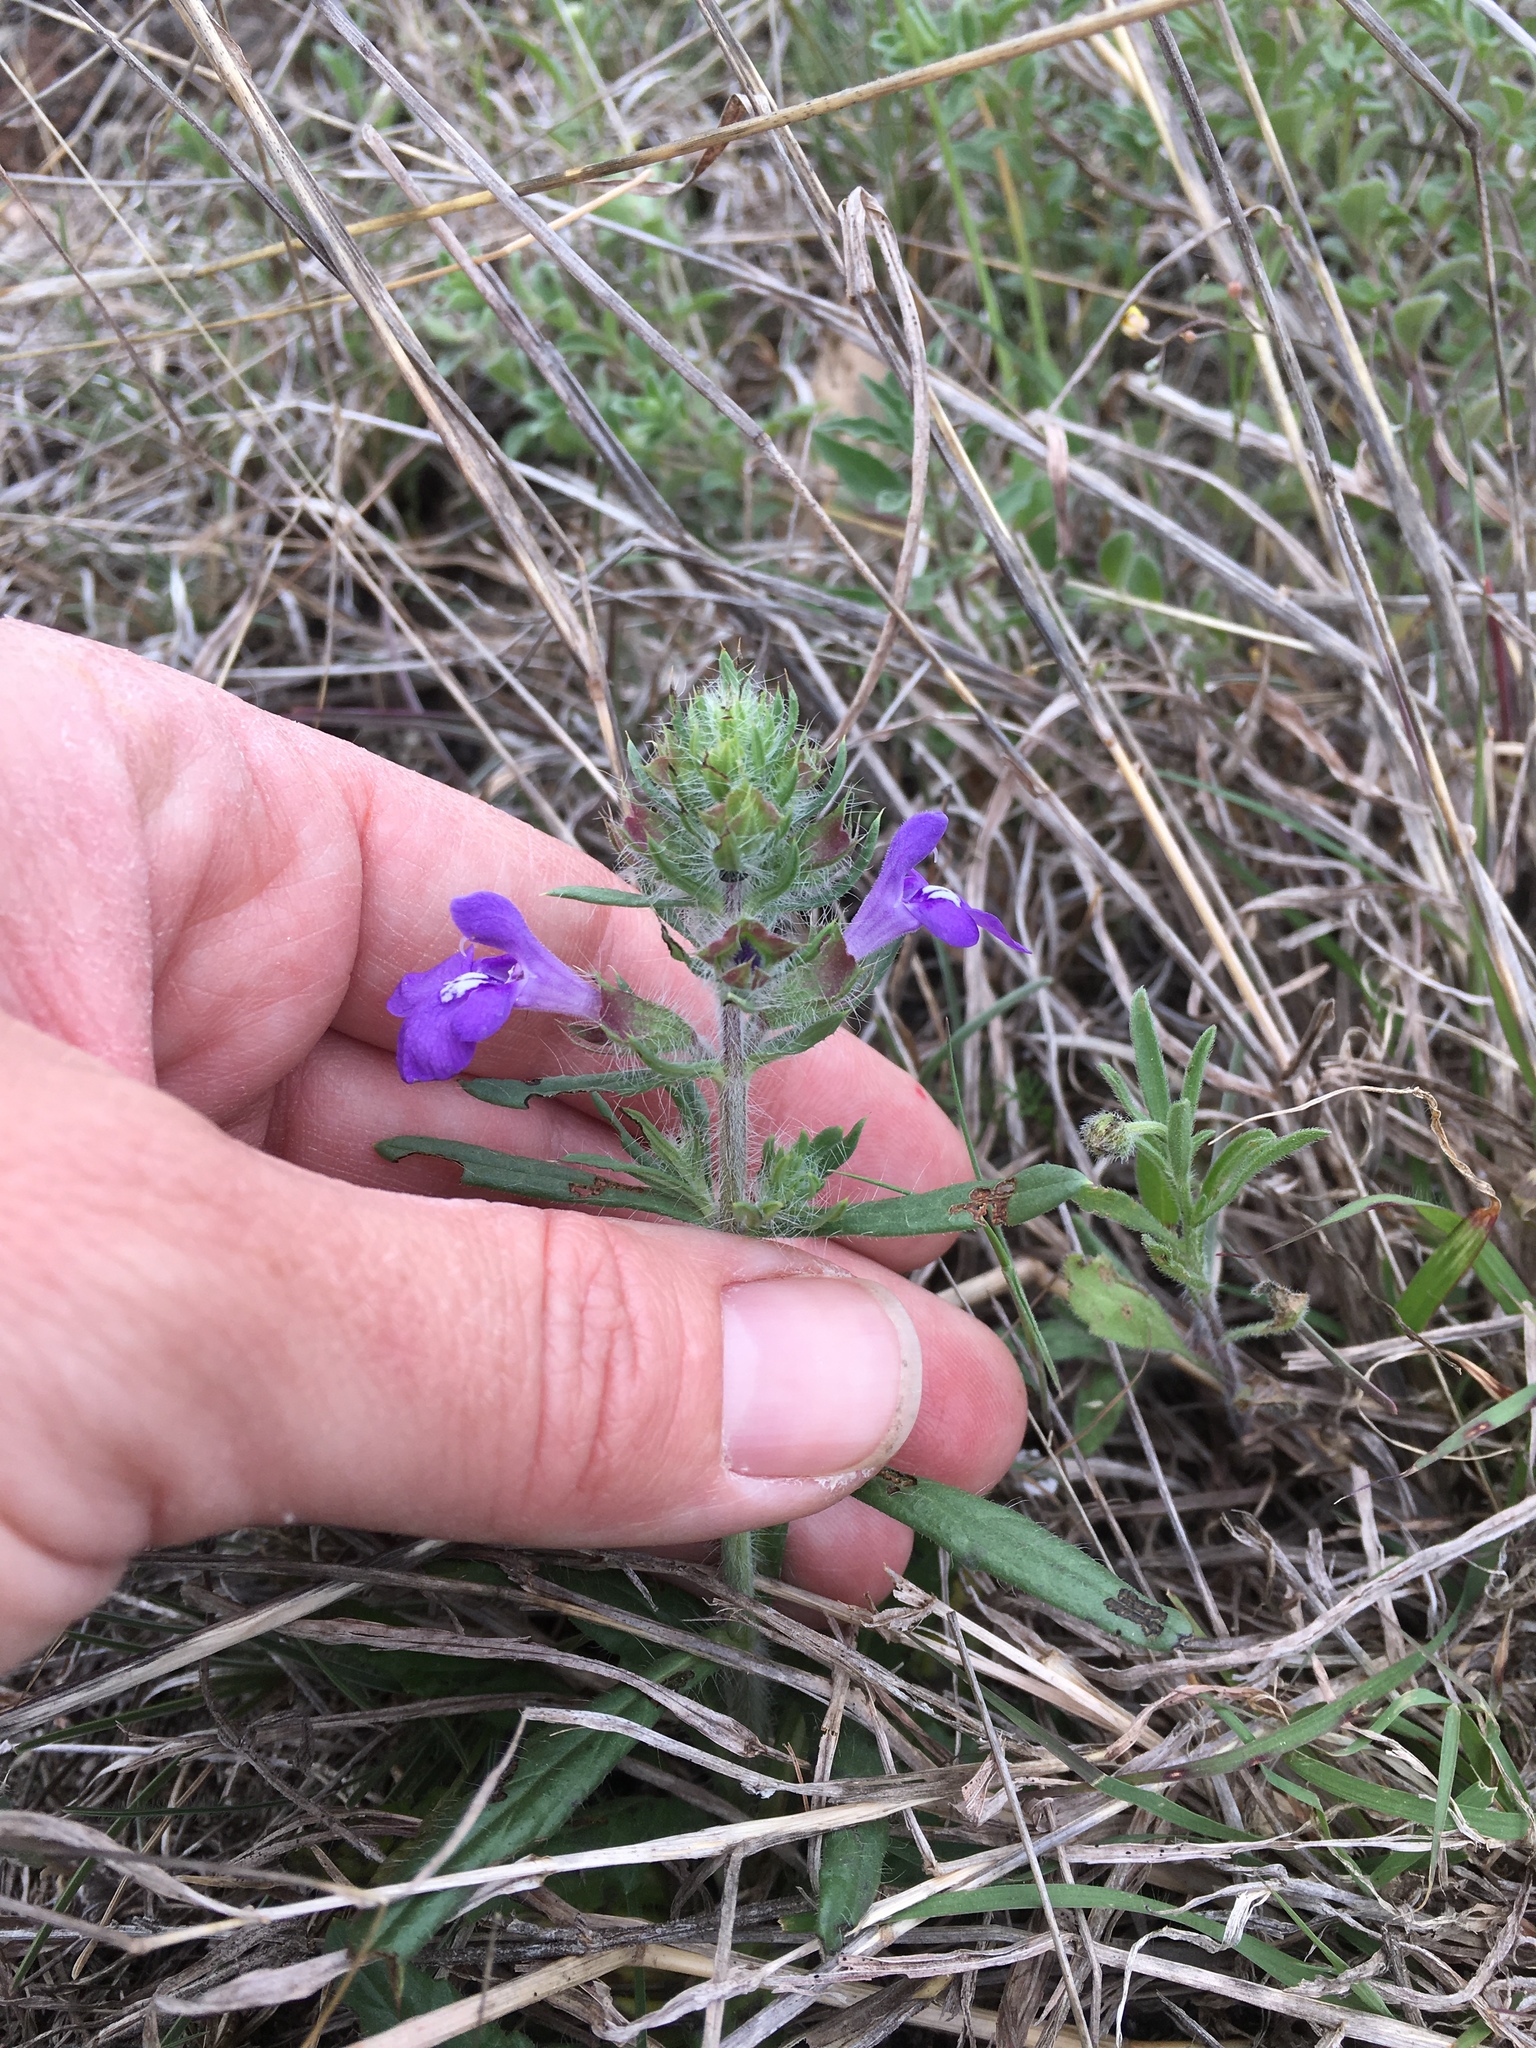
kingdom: Plantae
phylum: Tracheophyta
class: Magnoliopsida
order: Lamiales
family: Lamiaceae
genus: Salvia
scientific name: Salvia texana
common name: Texas sage
